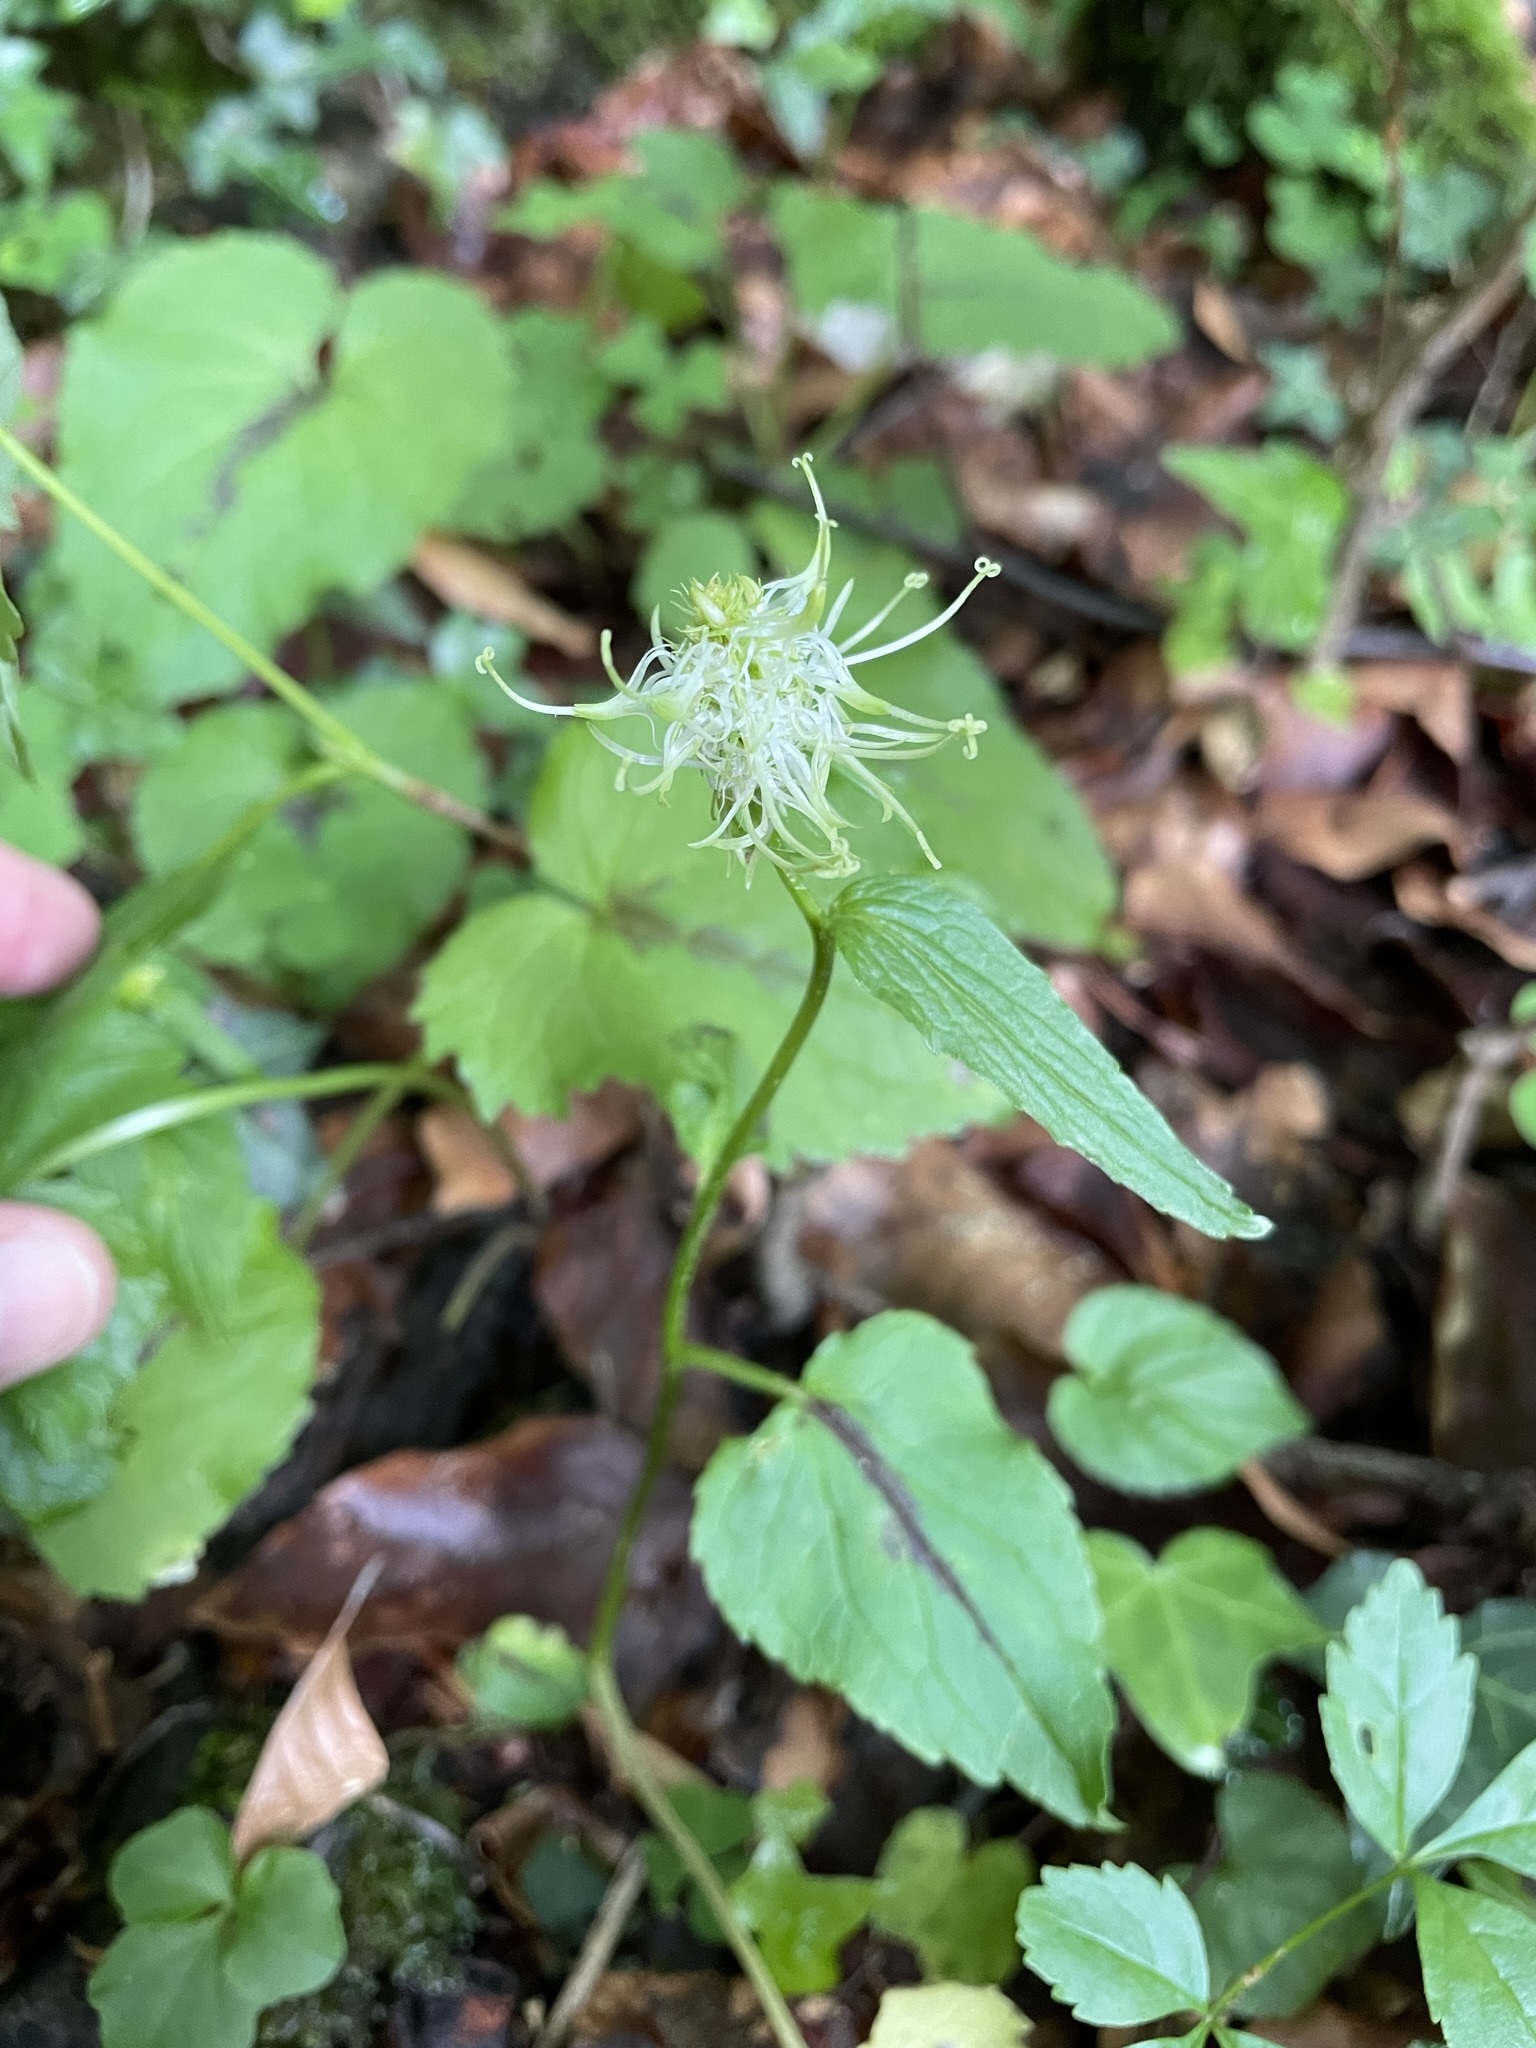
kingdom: Plantae
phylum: Tracheophyta
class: Magnoliopsida
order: Asterales
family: Campanulaceae
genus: Phyteuma
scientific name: Phyteuma spicatum
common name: Spiked rampion
